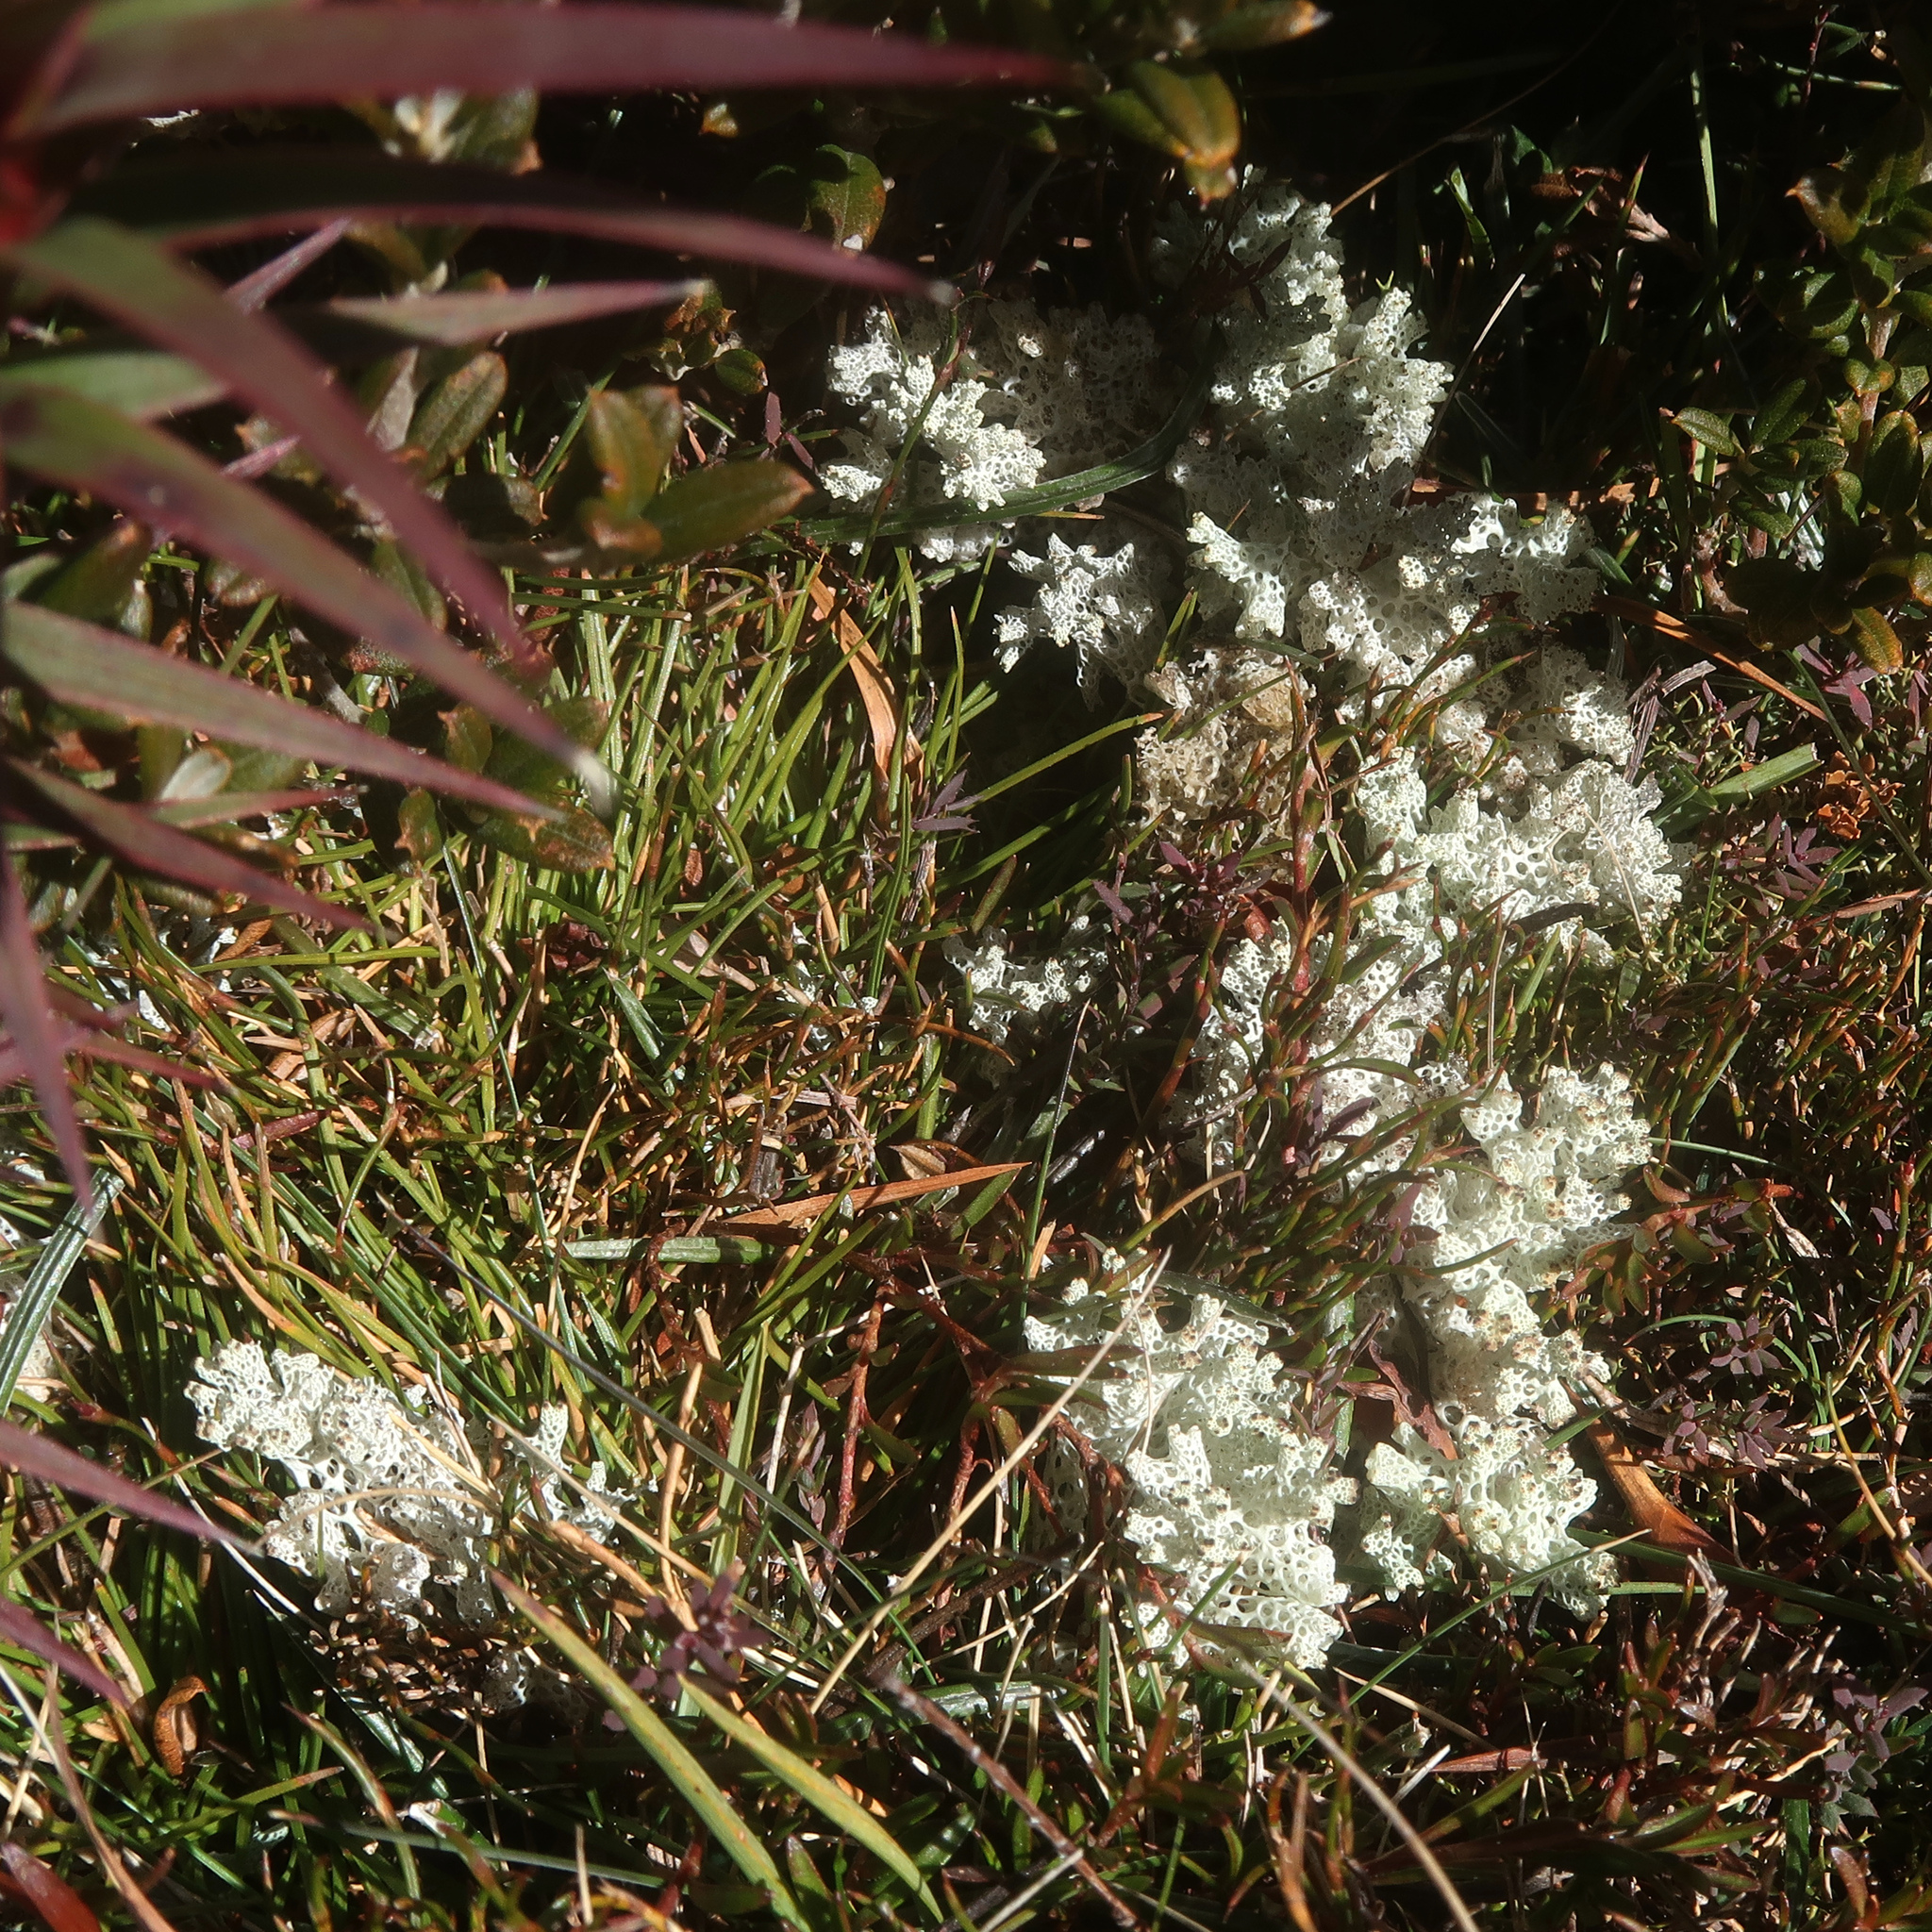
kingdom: Fungi
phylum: Ascomycota
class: Lecanoromycetes
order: Lecanorales
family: Cladoniaceae
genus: Pulchrocladia
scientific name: Pulchrocladia retipora
